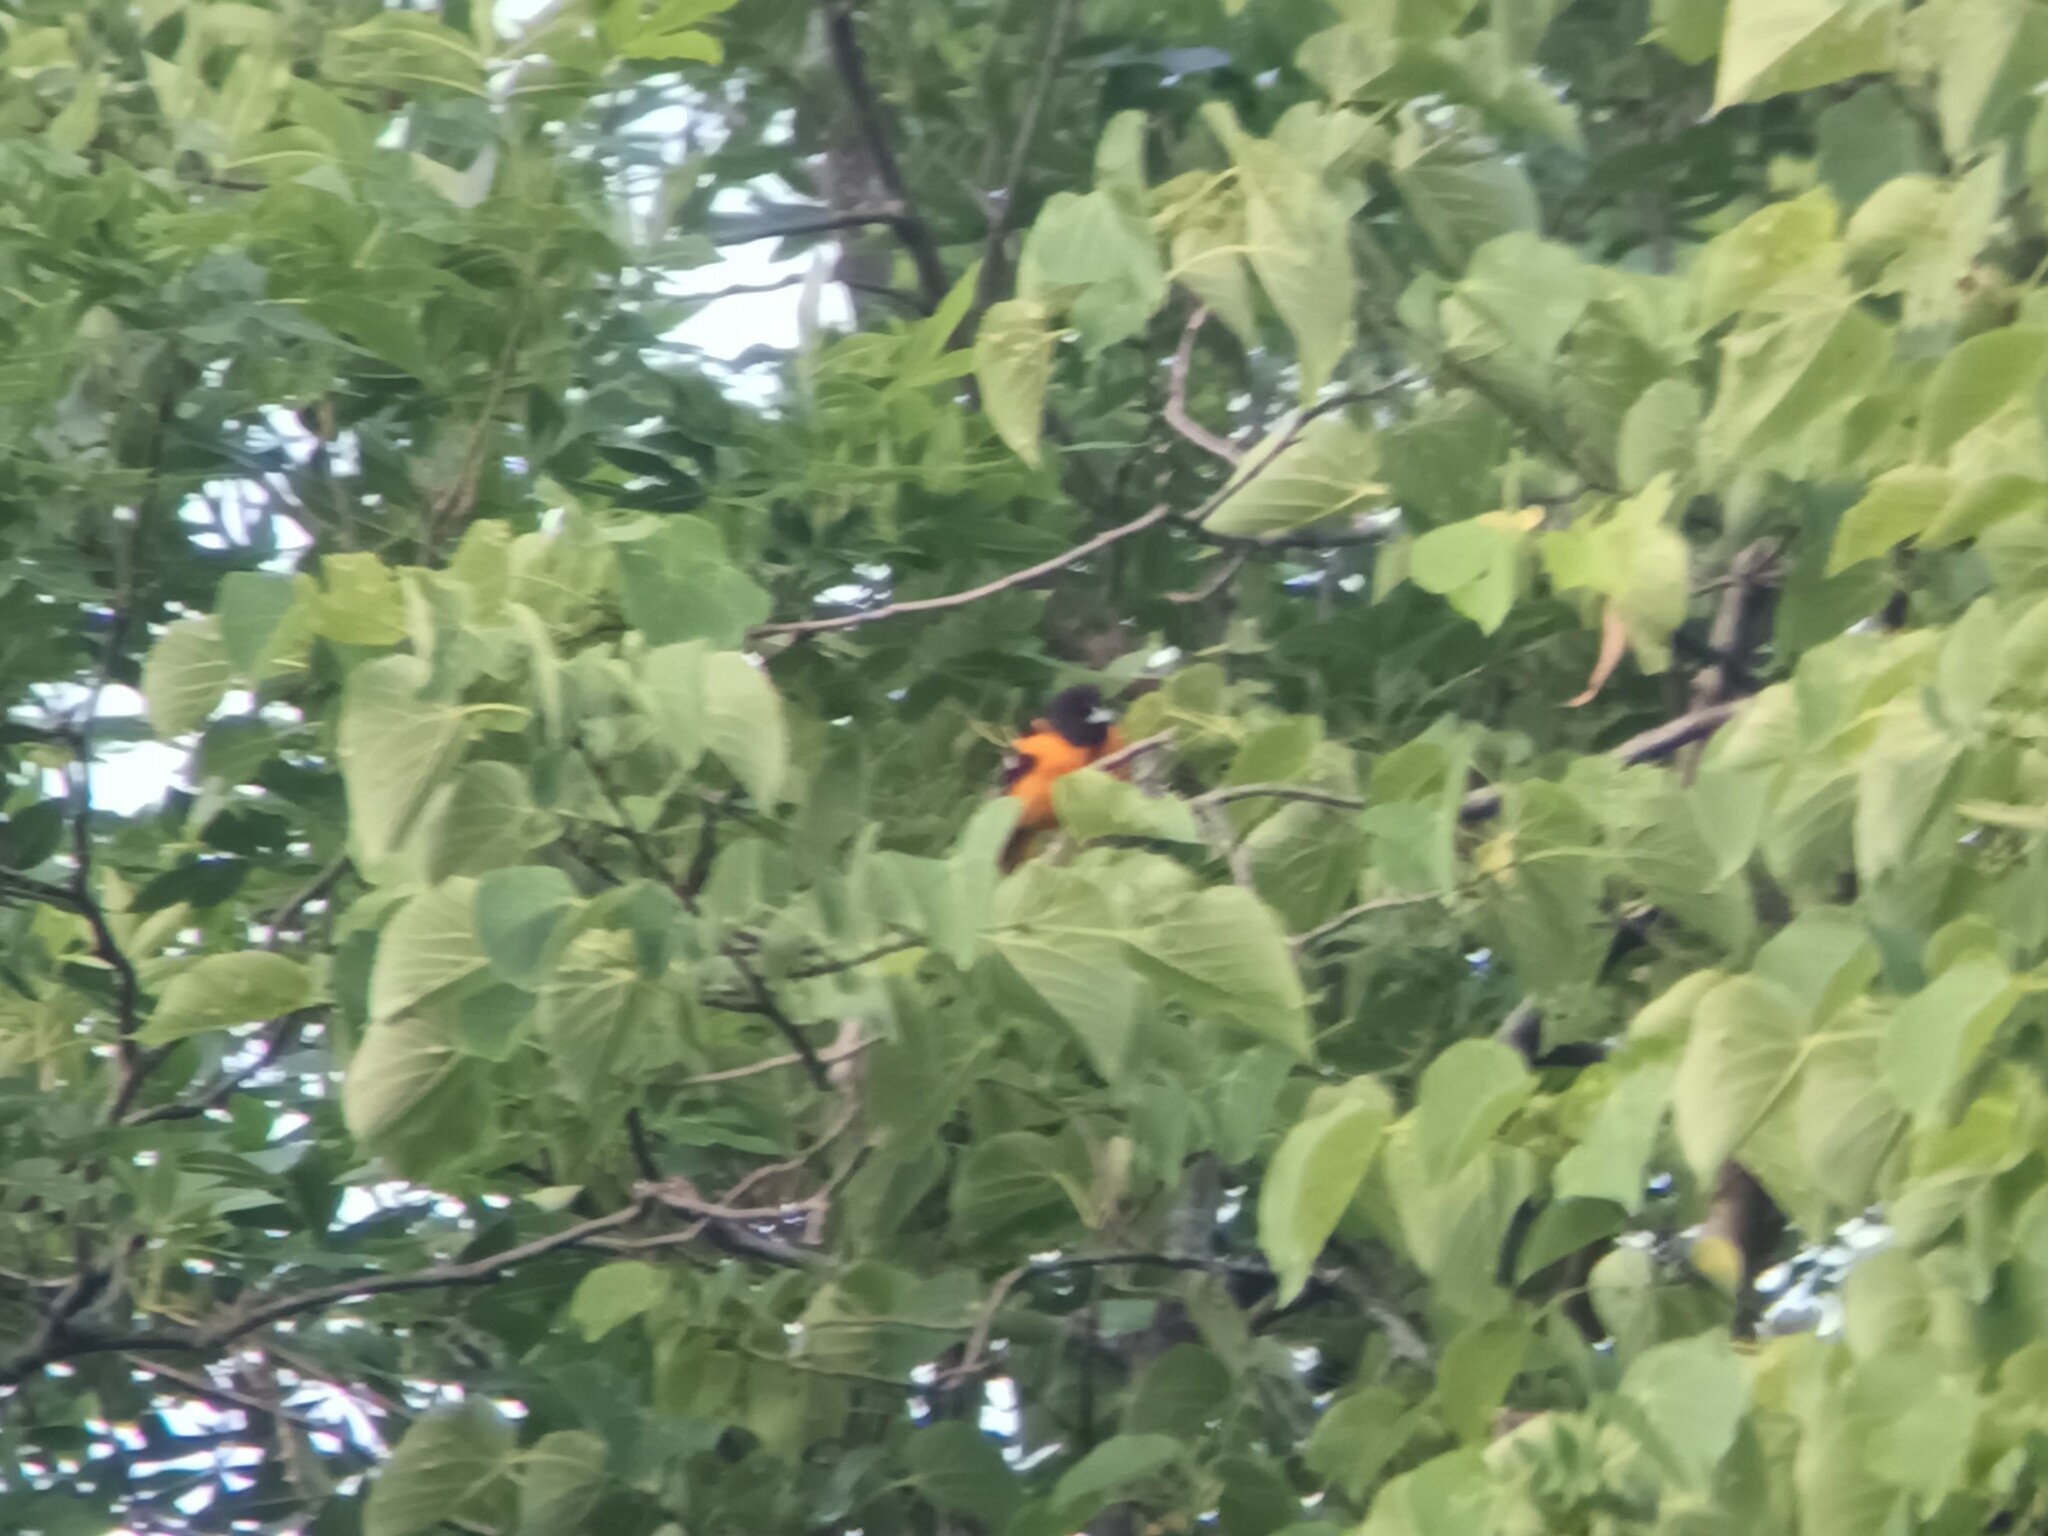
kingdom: Animalia
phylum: Chordata
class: Aves
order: Passeriformes
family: Icteridae
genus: Icterus
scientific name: Icterus galbula
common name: Baltimore oriole
